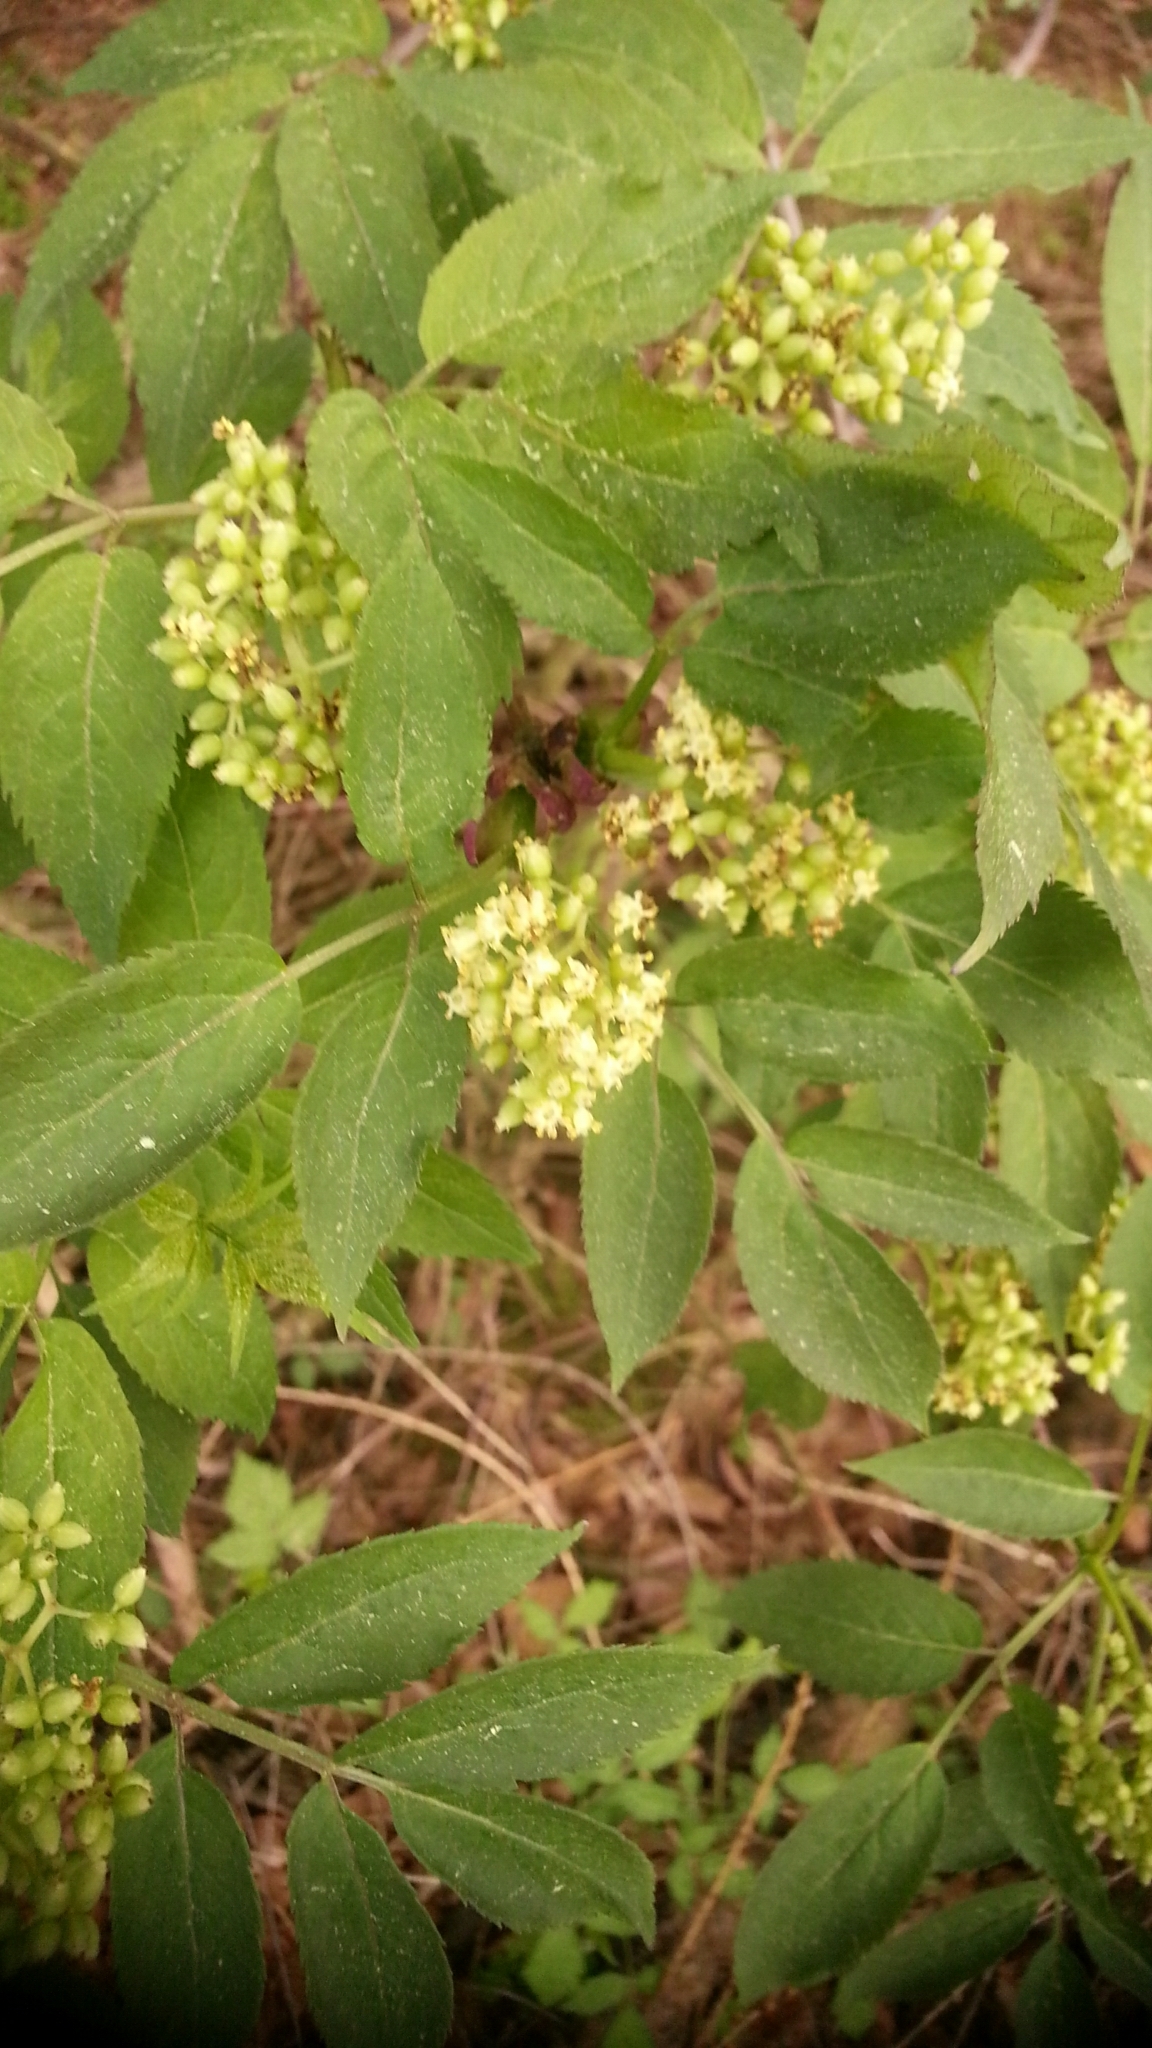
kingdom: Plantae
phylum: Tracheophyta
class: Magnoliopsida
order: Dipsacales
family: Viburnaceae
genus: Sambucus
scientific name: Sambucus racemosa
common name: Red-berried elder
